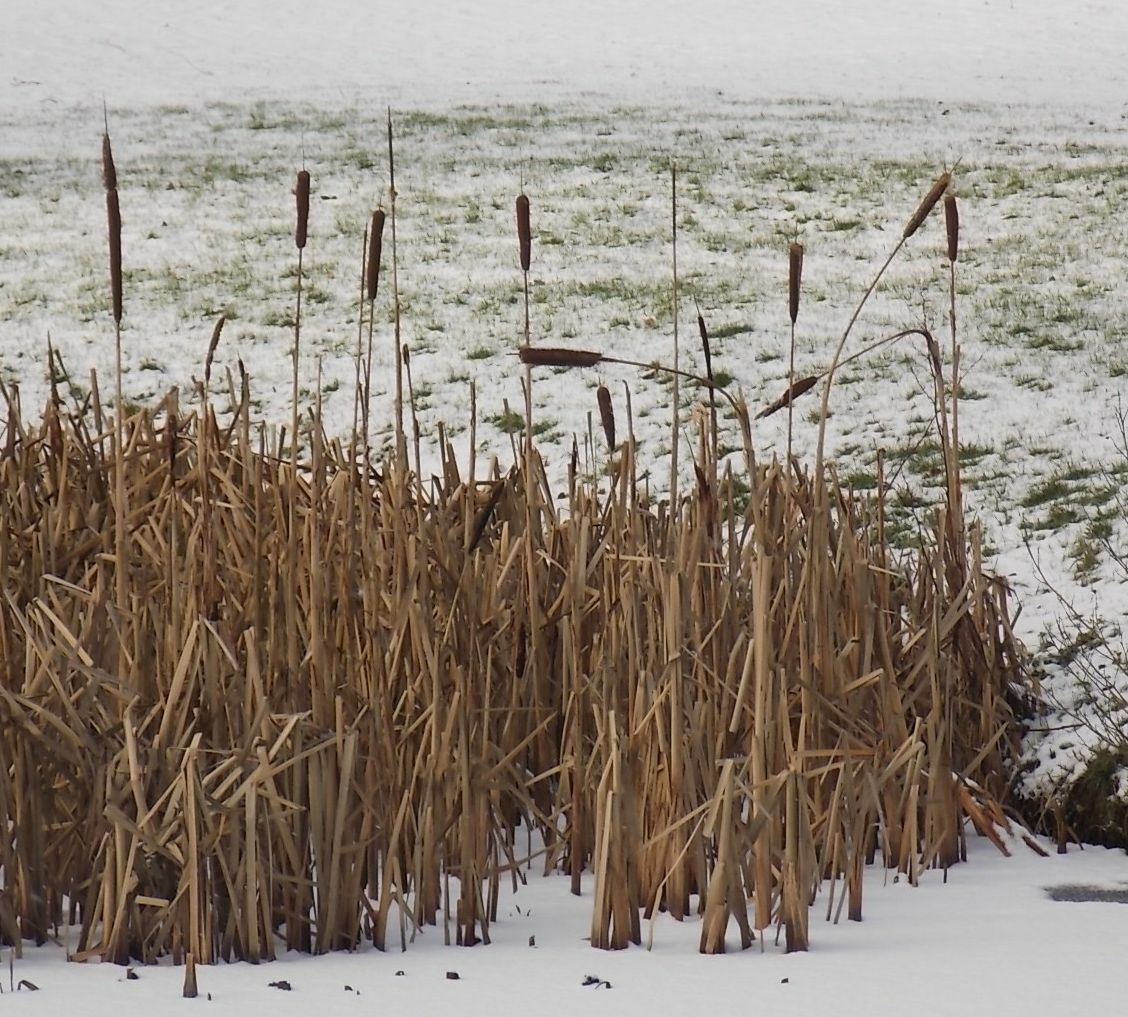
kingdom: Plantae
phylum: Tracheophyta
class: Liliopsida
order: Poales
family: Typhaceae
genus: Typha
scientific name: Typha latifolia
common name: Broadleaf cattail
